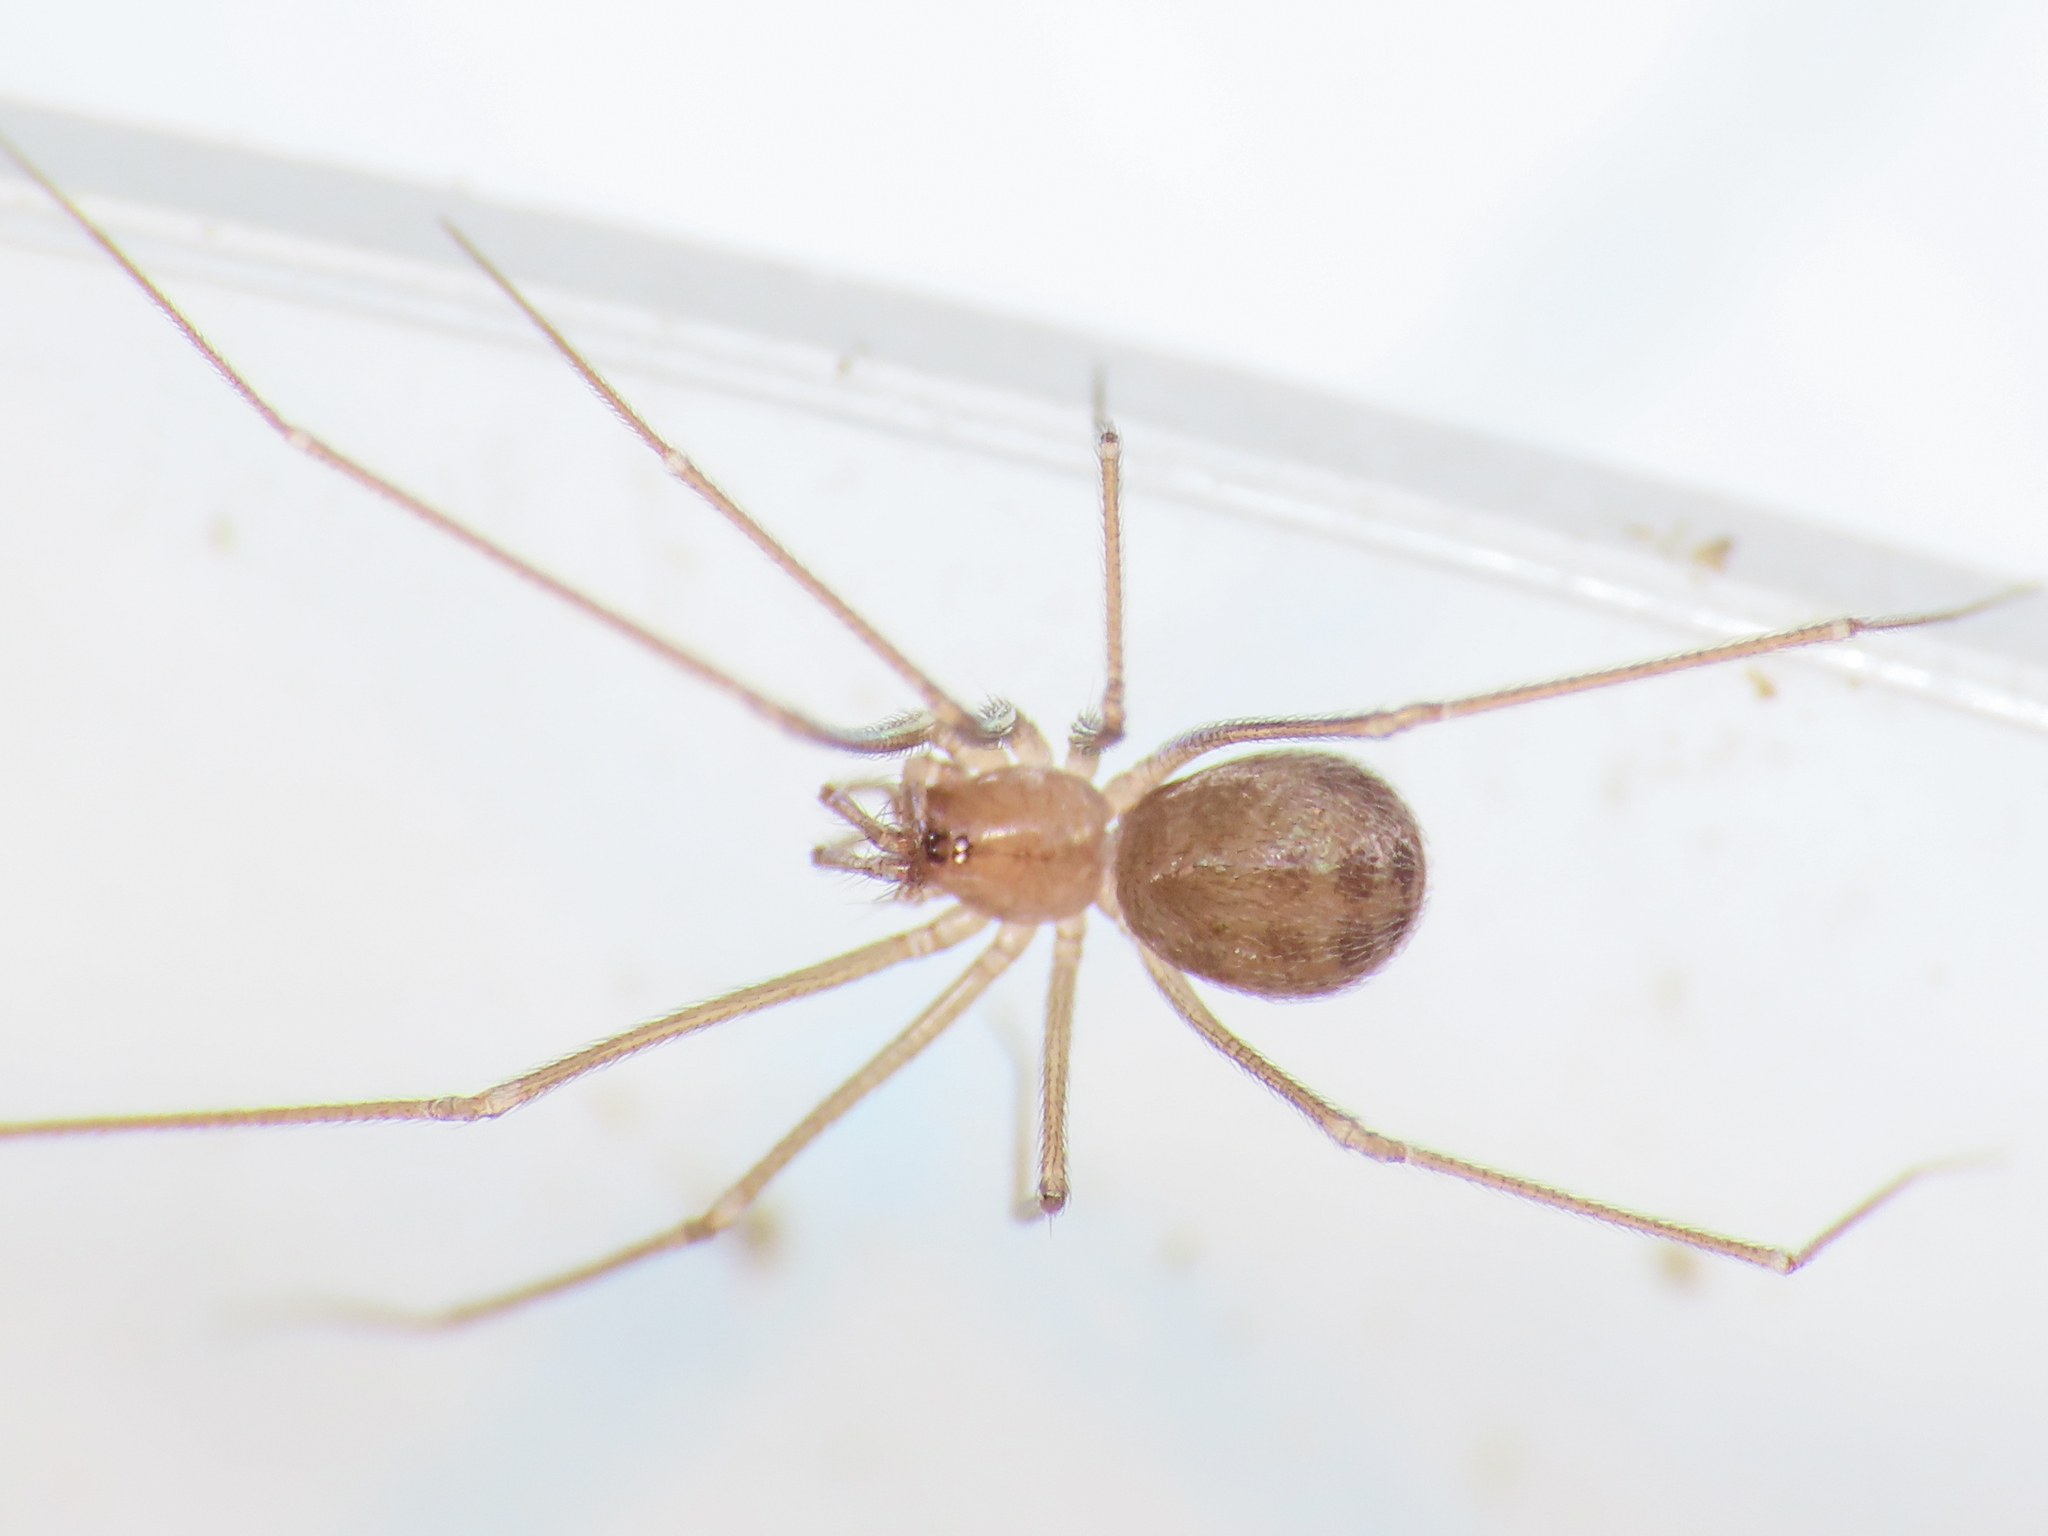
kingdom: Animalia
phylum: Arthropoda
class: Arachnida
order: Araneae
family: Leptonetidae
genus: Paraleptoneta
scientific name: Paraleptoneta spinimana
